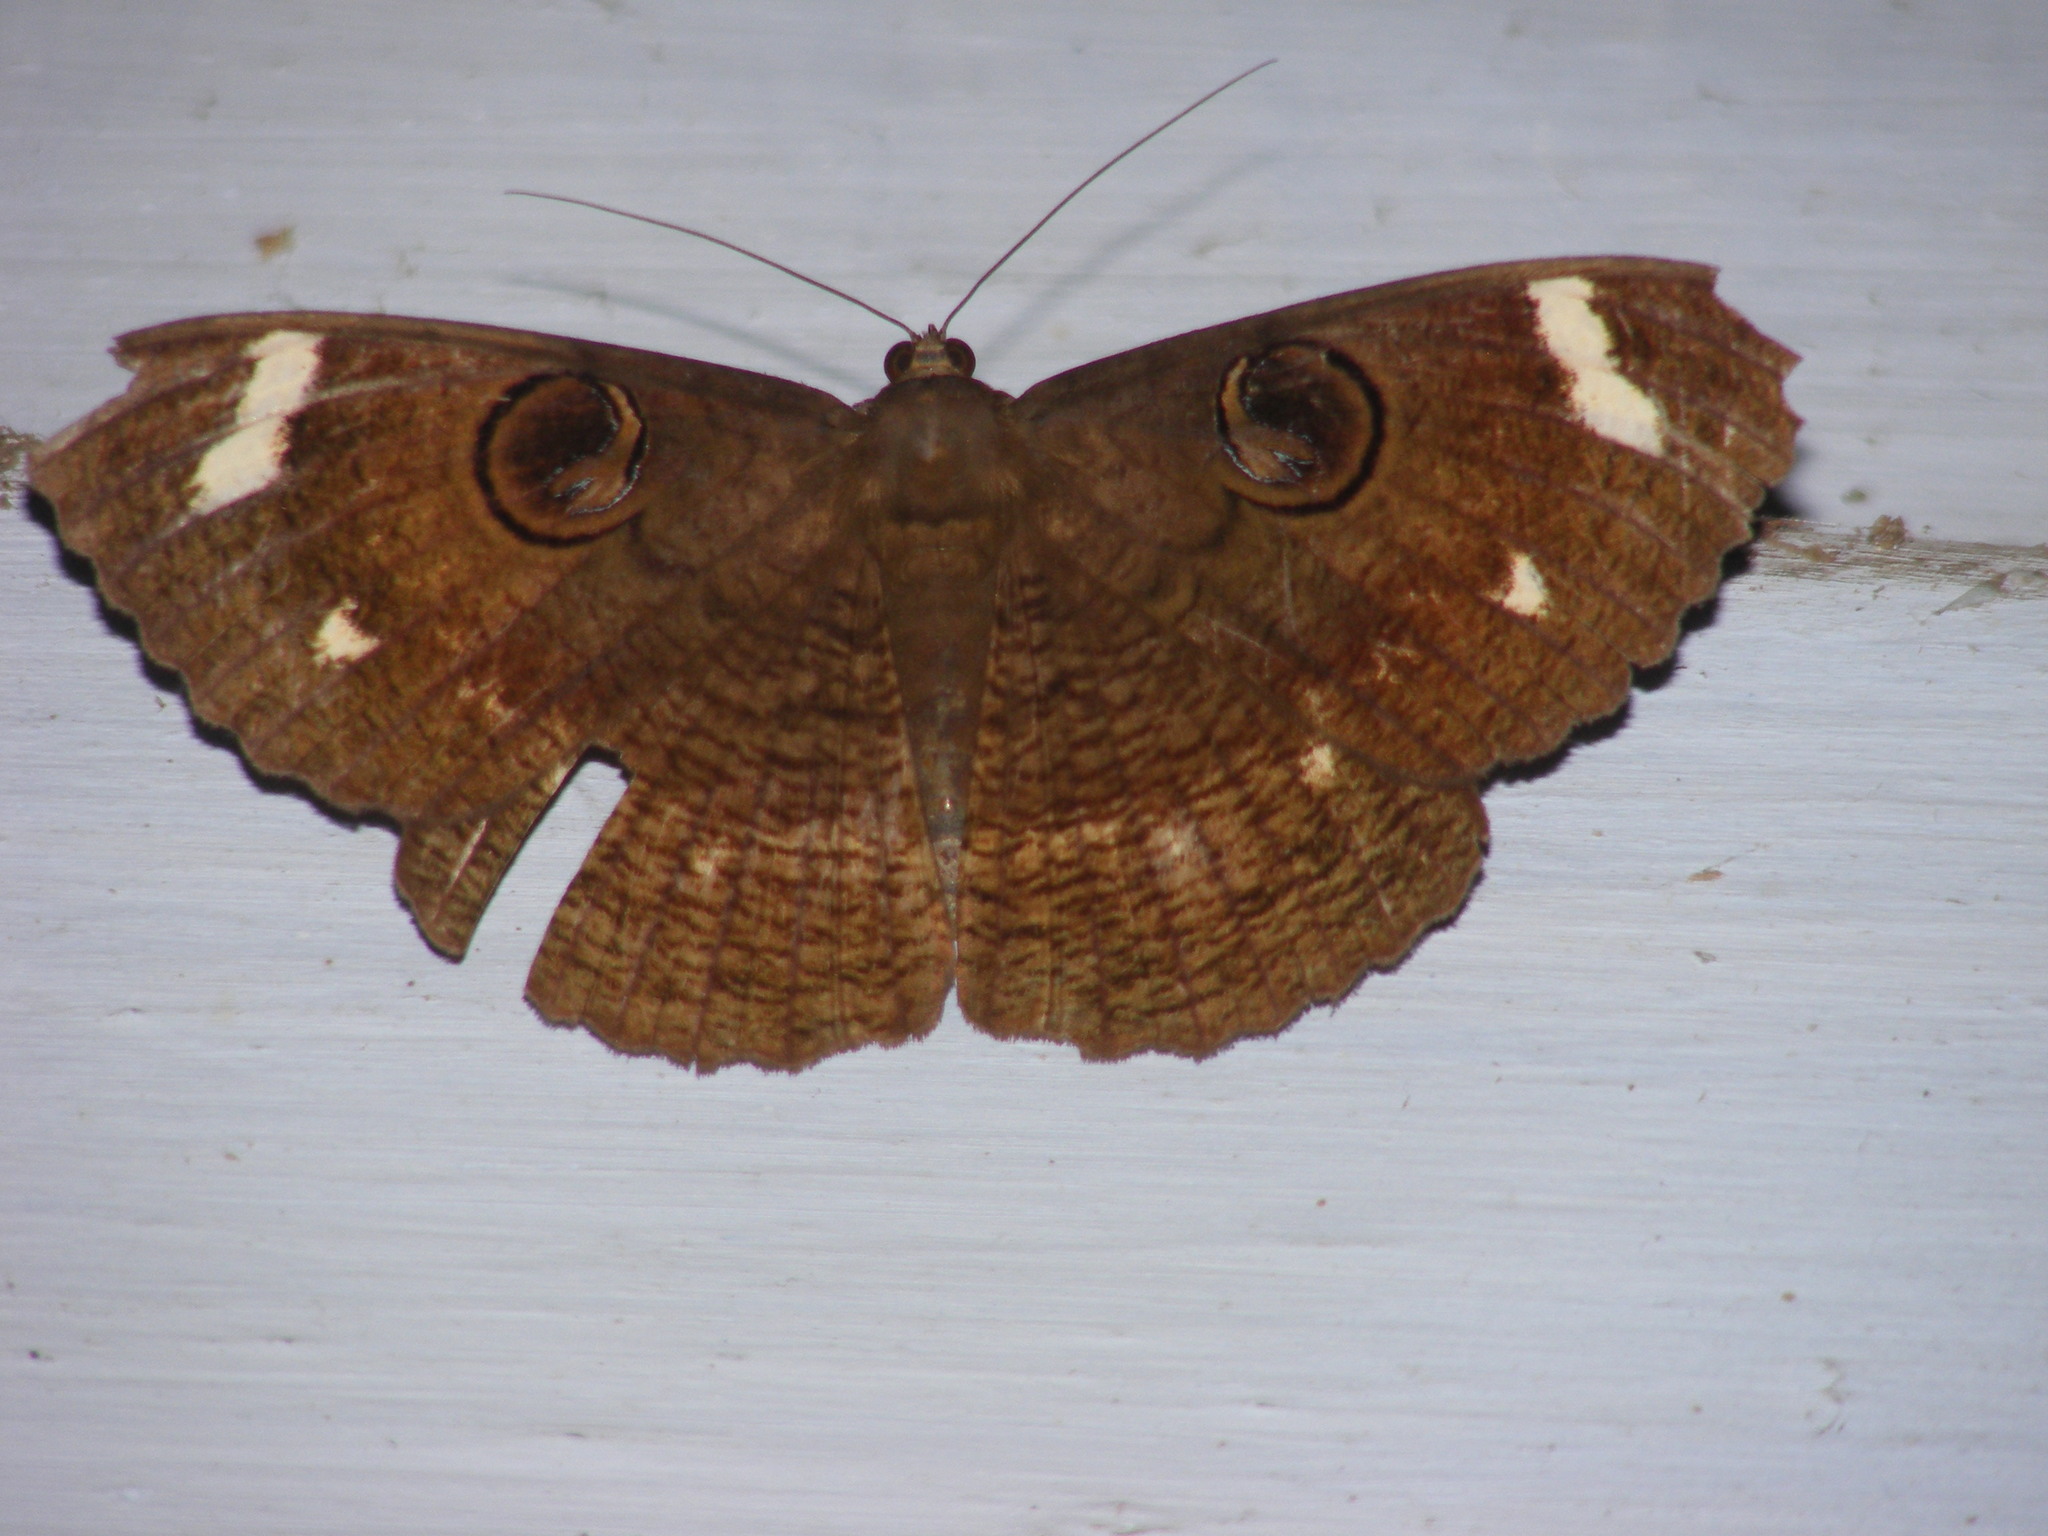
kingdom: Animalia
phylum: Arthropoda
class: Insecta
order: Lepidoptera
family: Erebidae
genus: Erebus
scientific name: Erebus hieroglyphica
